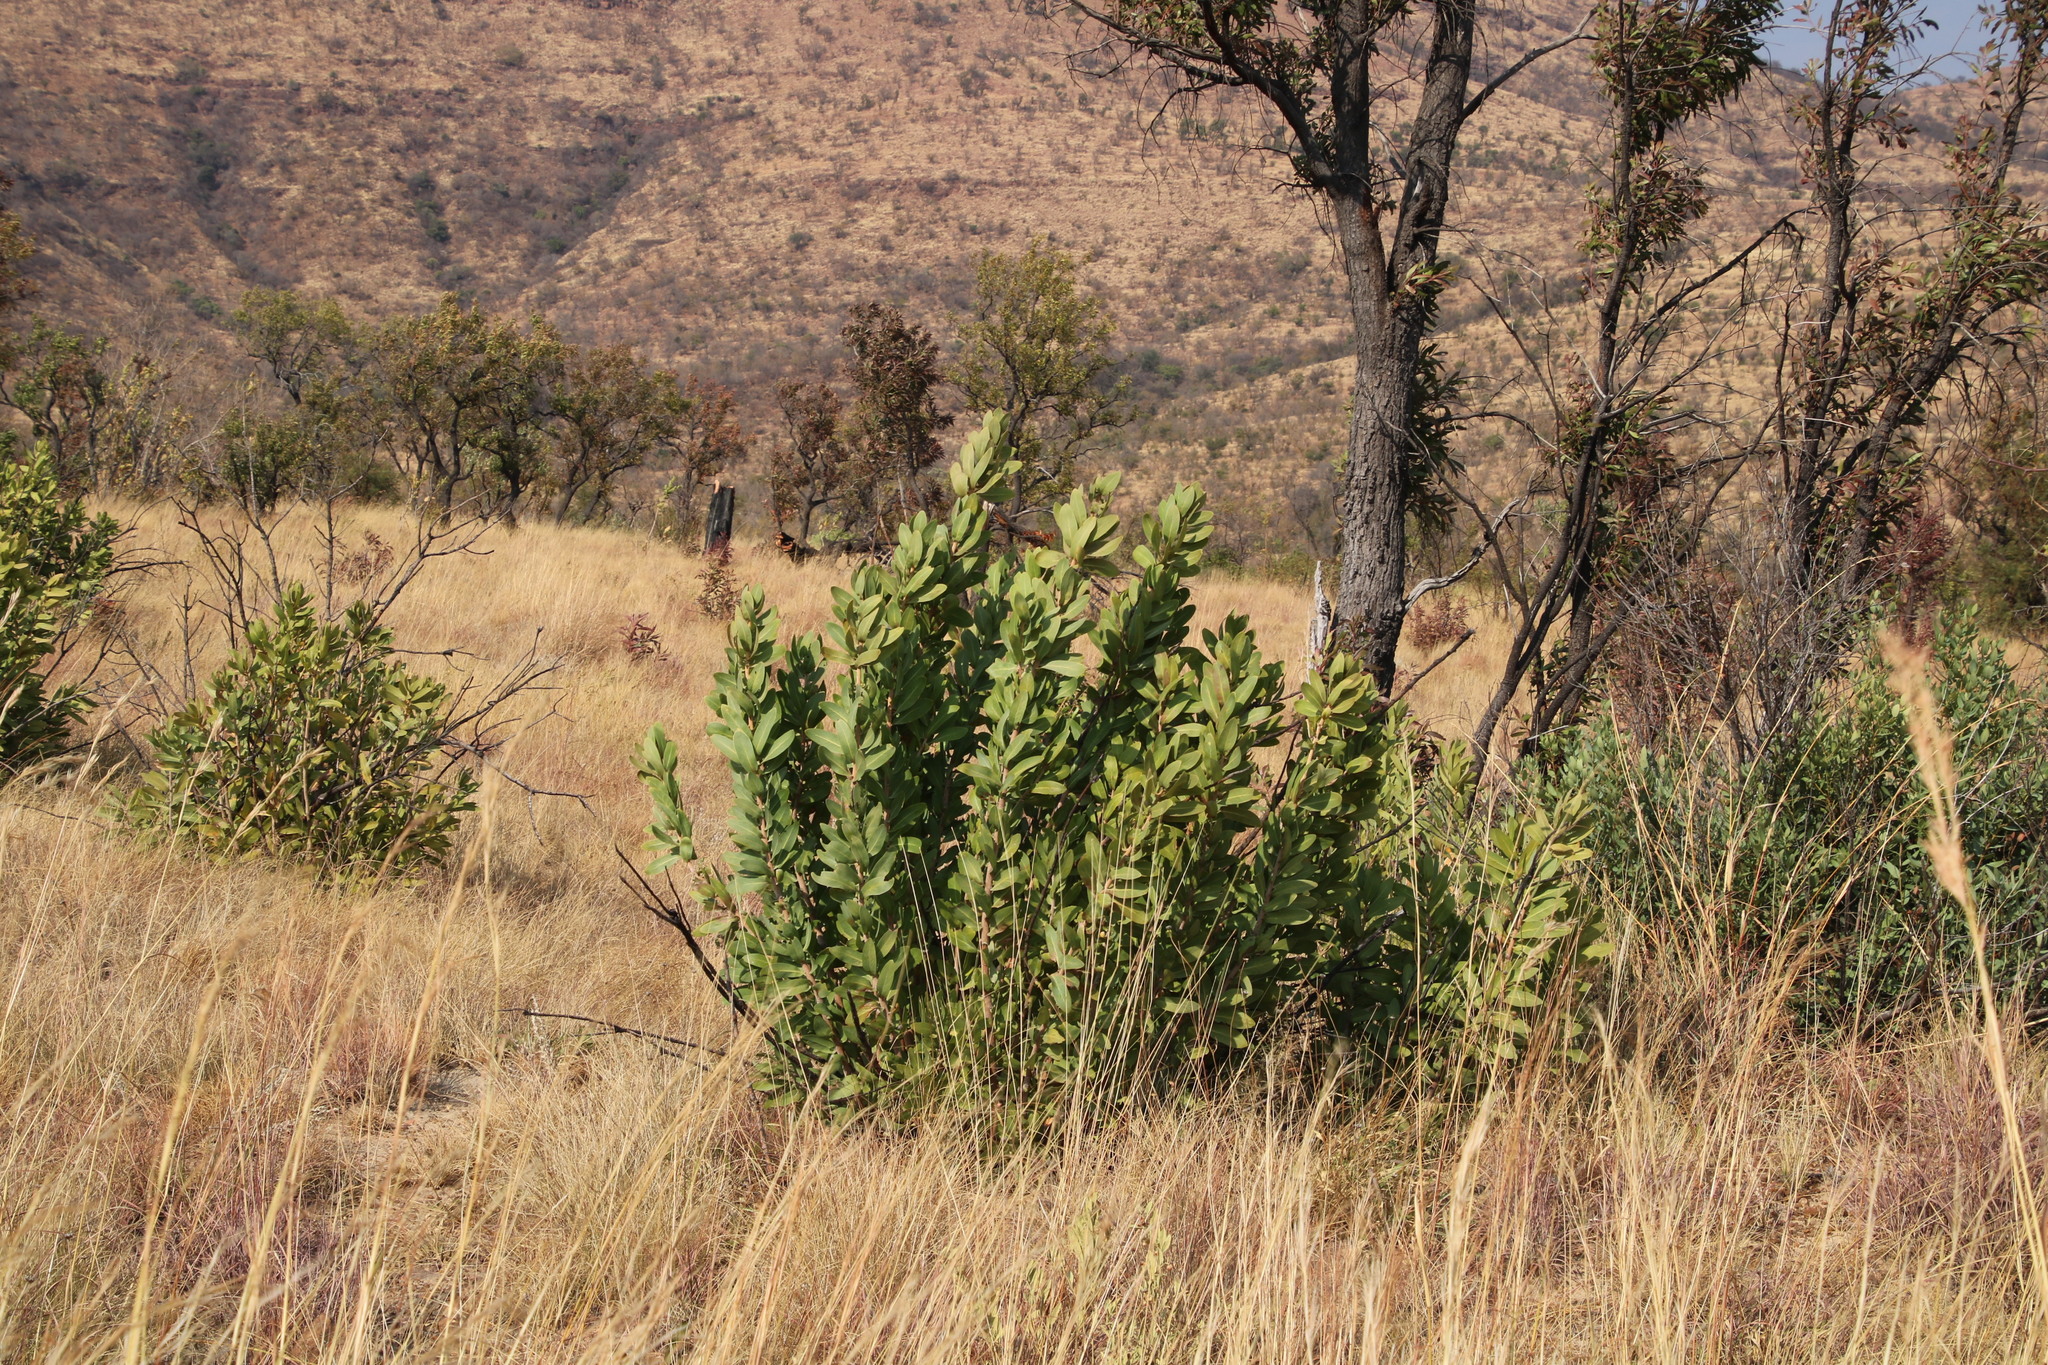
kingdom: Plantae
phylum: Tracheophyta
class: Magnoliopsida
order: Proteales
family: Proteaceae
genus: Protea
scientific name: Protea gaguedi
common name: African protea
